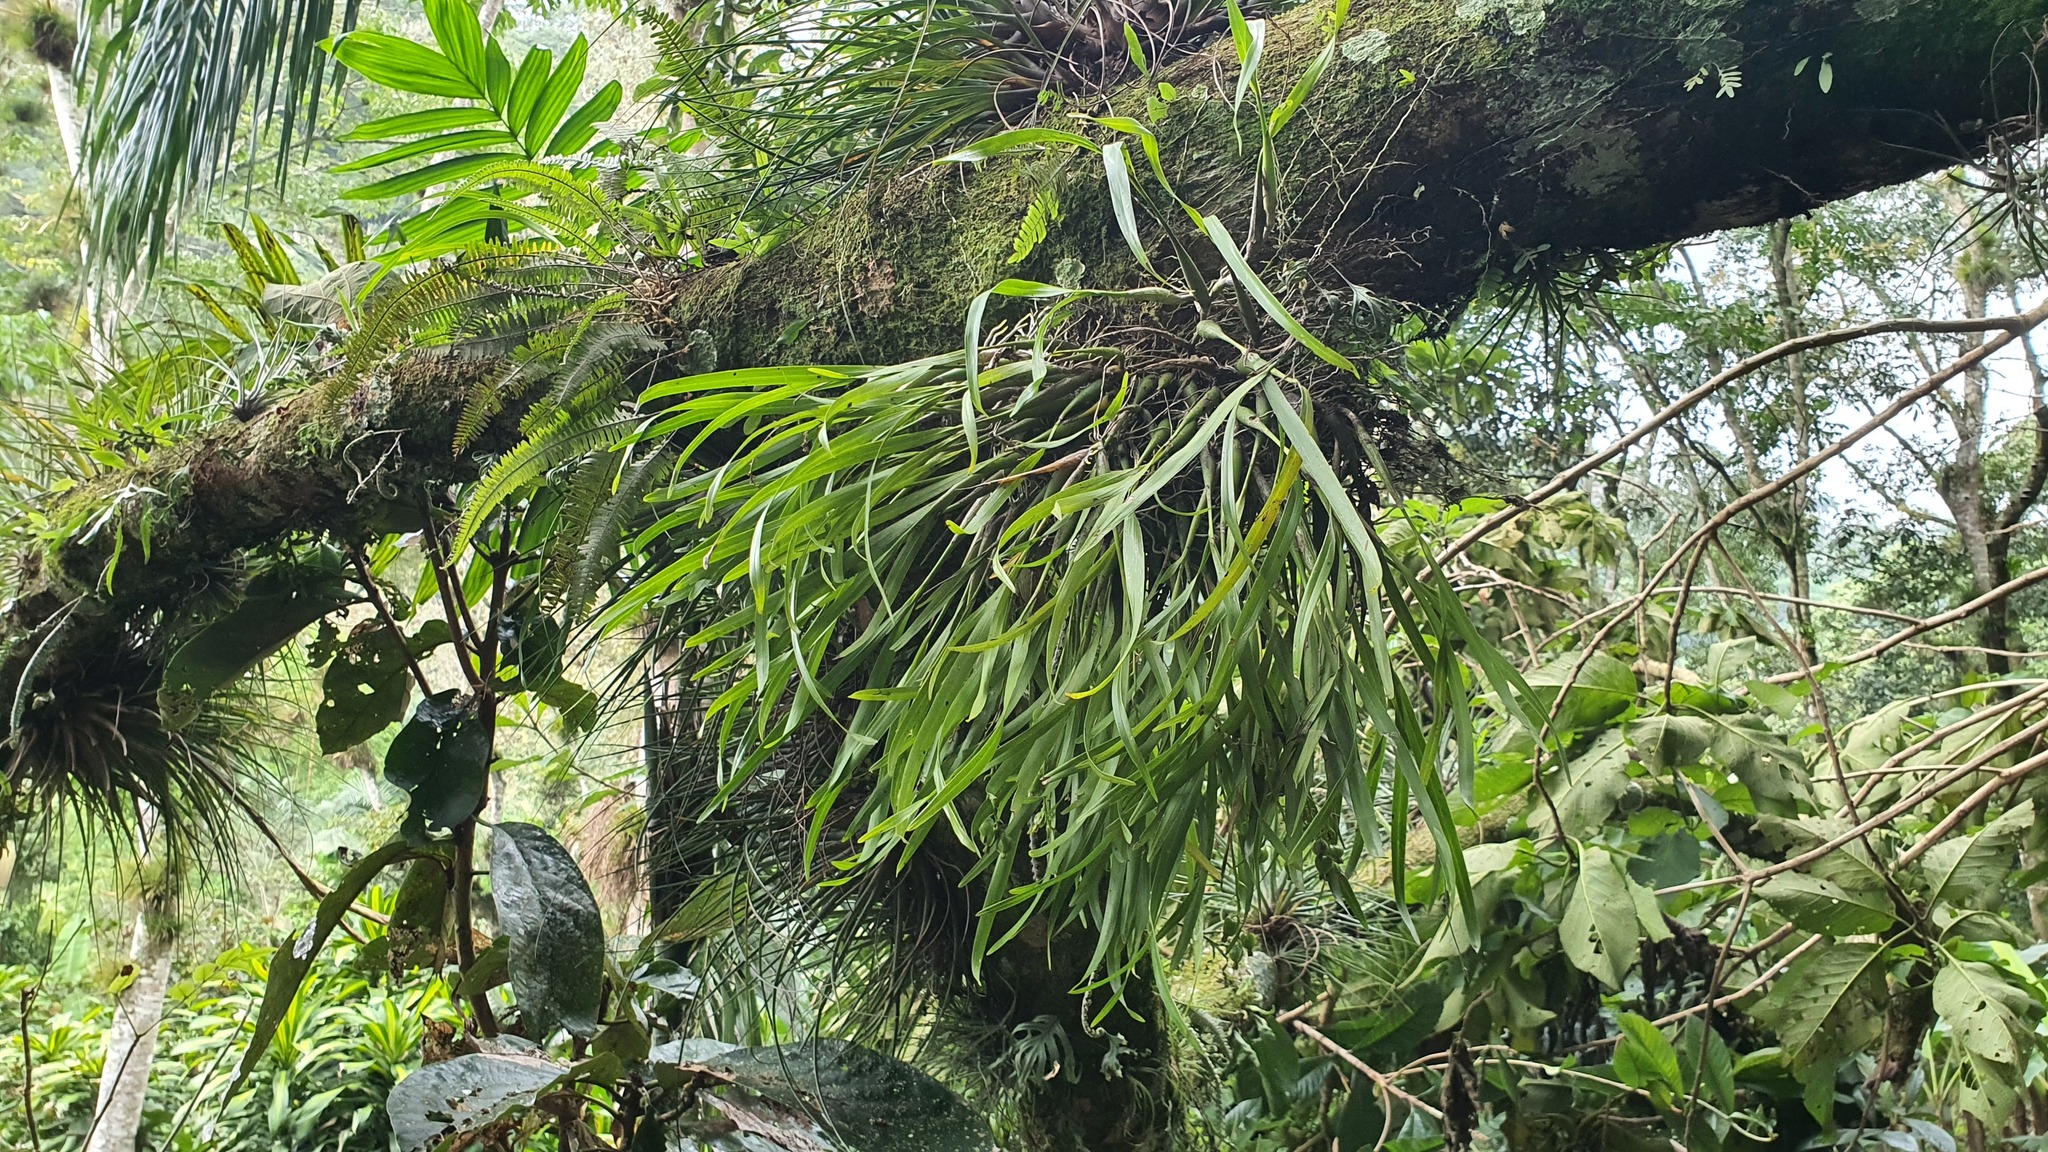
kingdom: Plantae
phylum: Tracheophyta
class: Liliopsida
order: Asparagales
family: Orchidaceae
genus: Prosthechea
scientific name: Prosthechea ochracea
